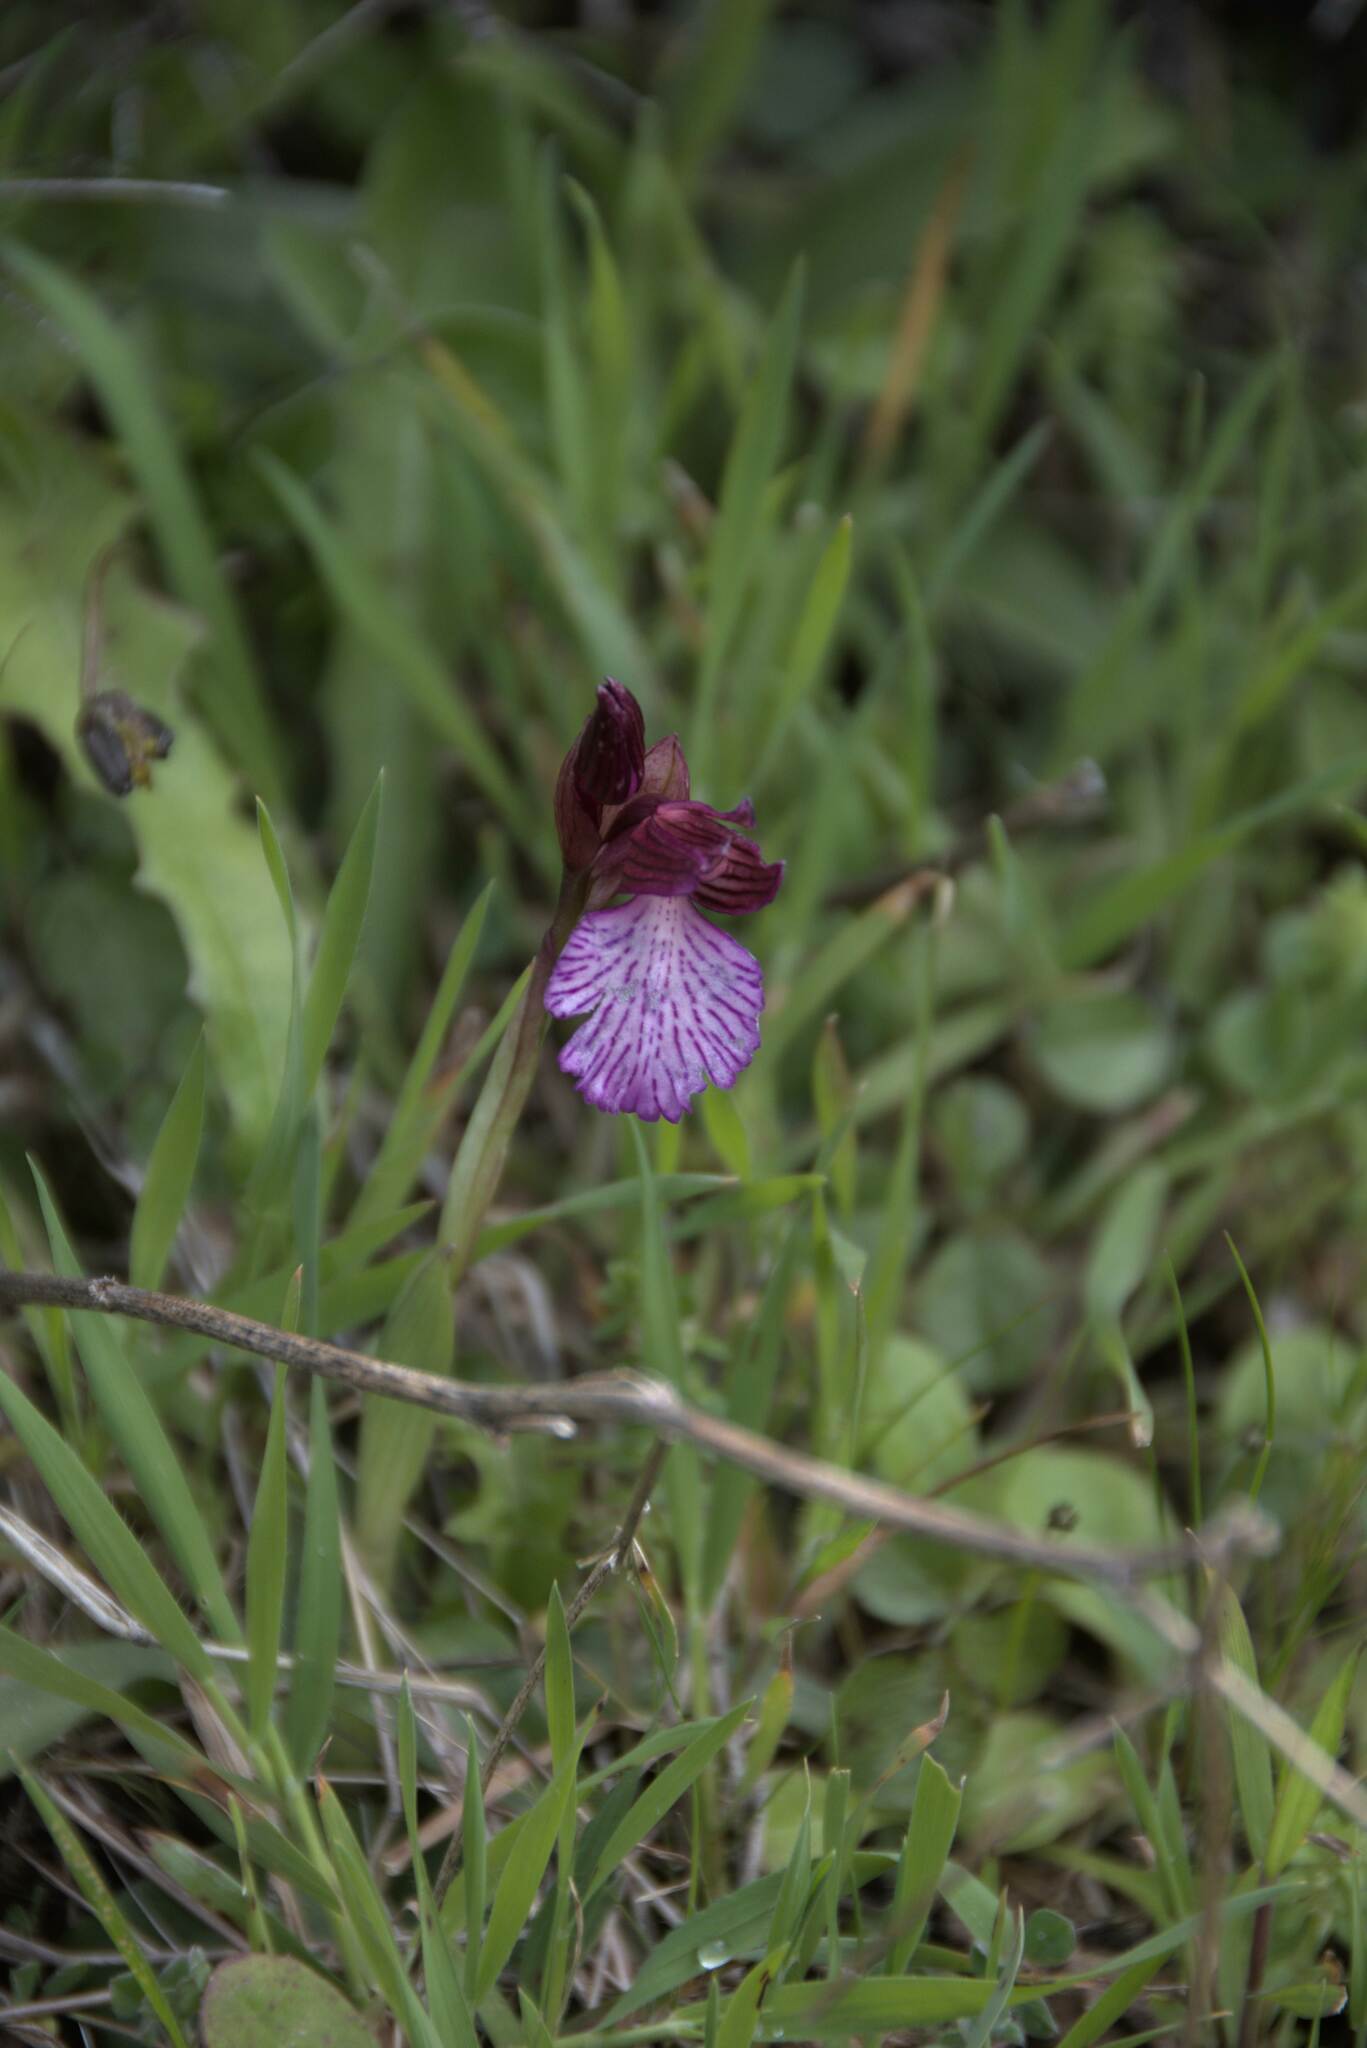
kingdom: Plantae
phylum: Tracheophyta
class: Liliopsida
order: Asparagales
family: Orchidaceae
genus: Anacamptis
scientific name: Anacamptis papilionacea
